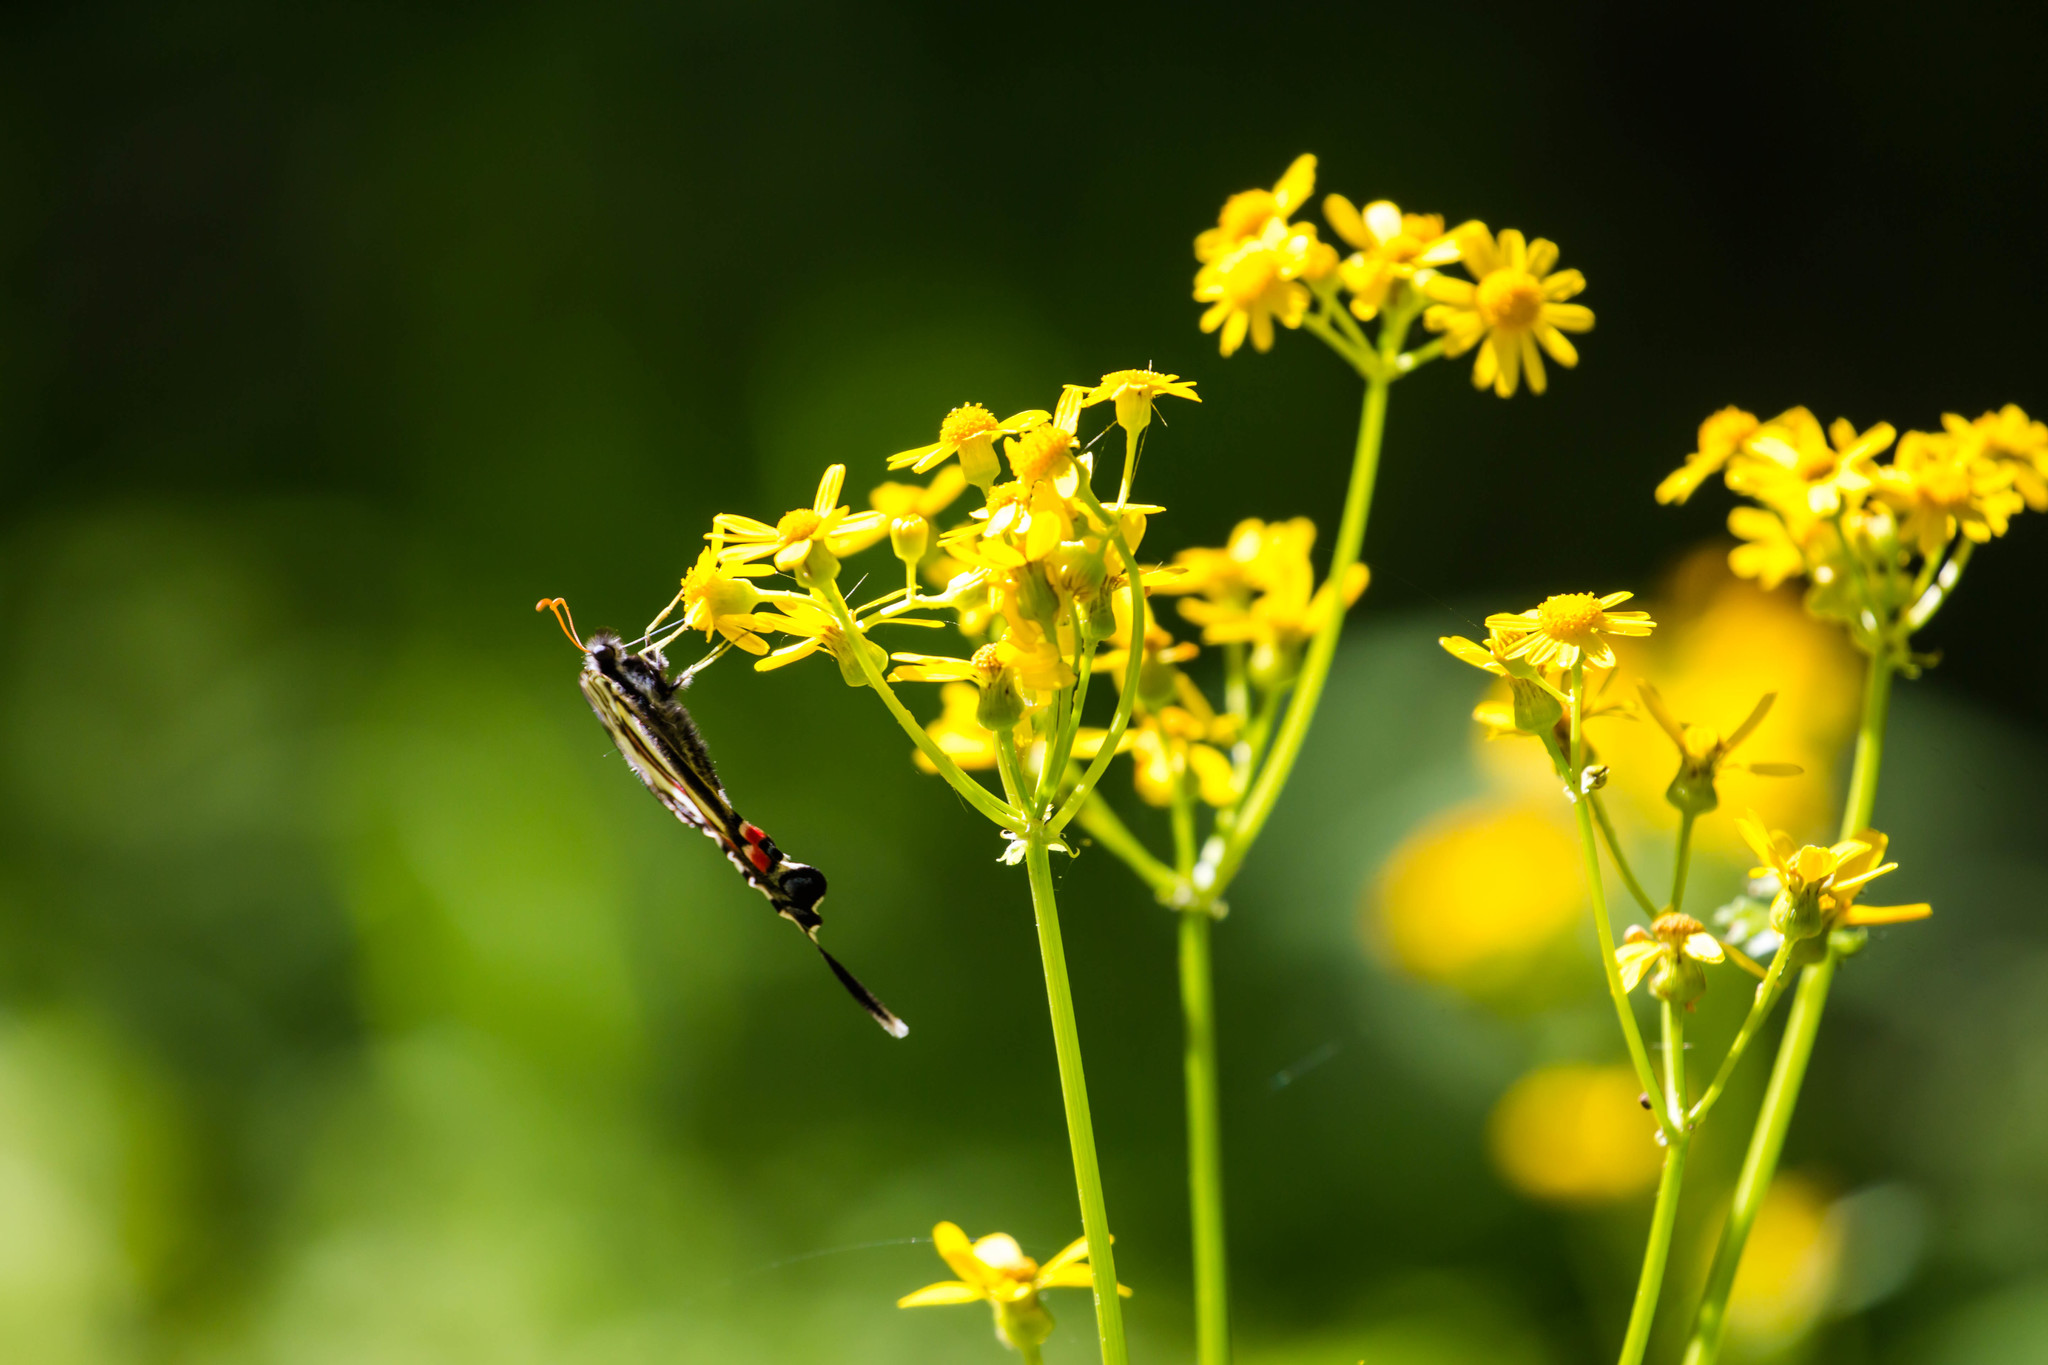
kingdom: Animalia
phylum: Arthropoda
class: Insecta
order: Lepidoptera
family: Papilionidae
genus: Protographium
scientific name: Protographium marcellus
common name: Zebra swallowtail
